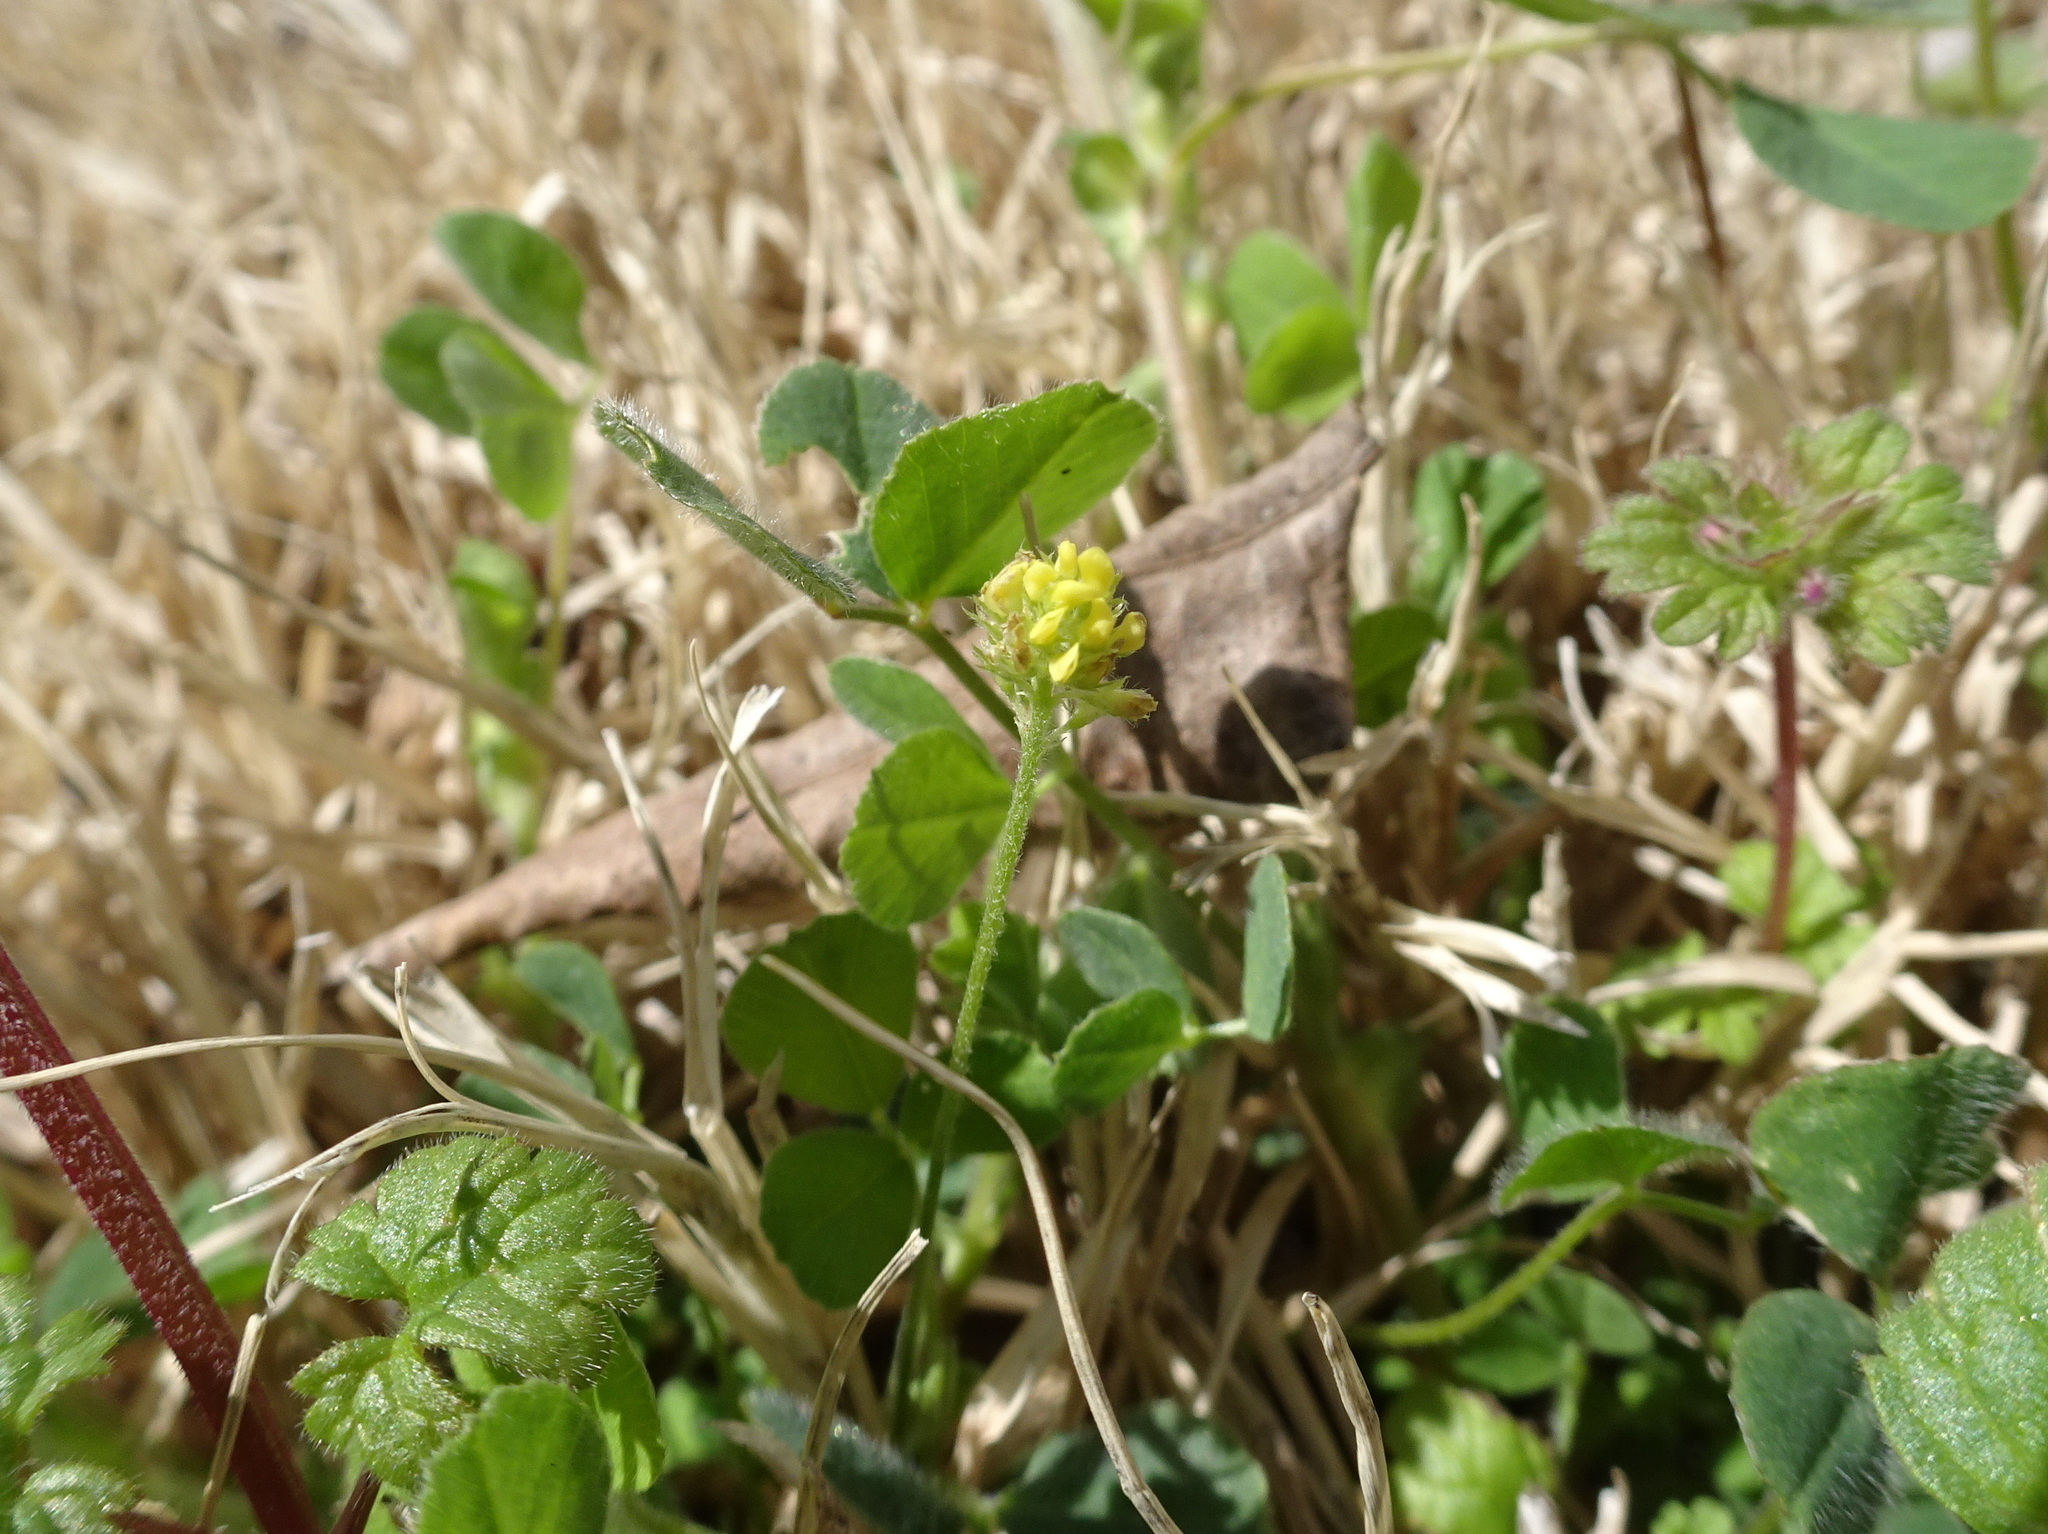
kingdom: Plantae
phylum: Tracheophyta
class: Magnoliopsida
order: Fabales
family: Fabaceae
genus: Medicago
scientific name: Medicago lupulina
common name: Black medick
